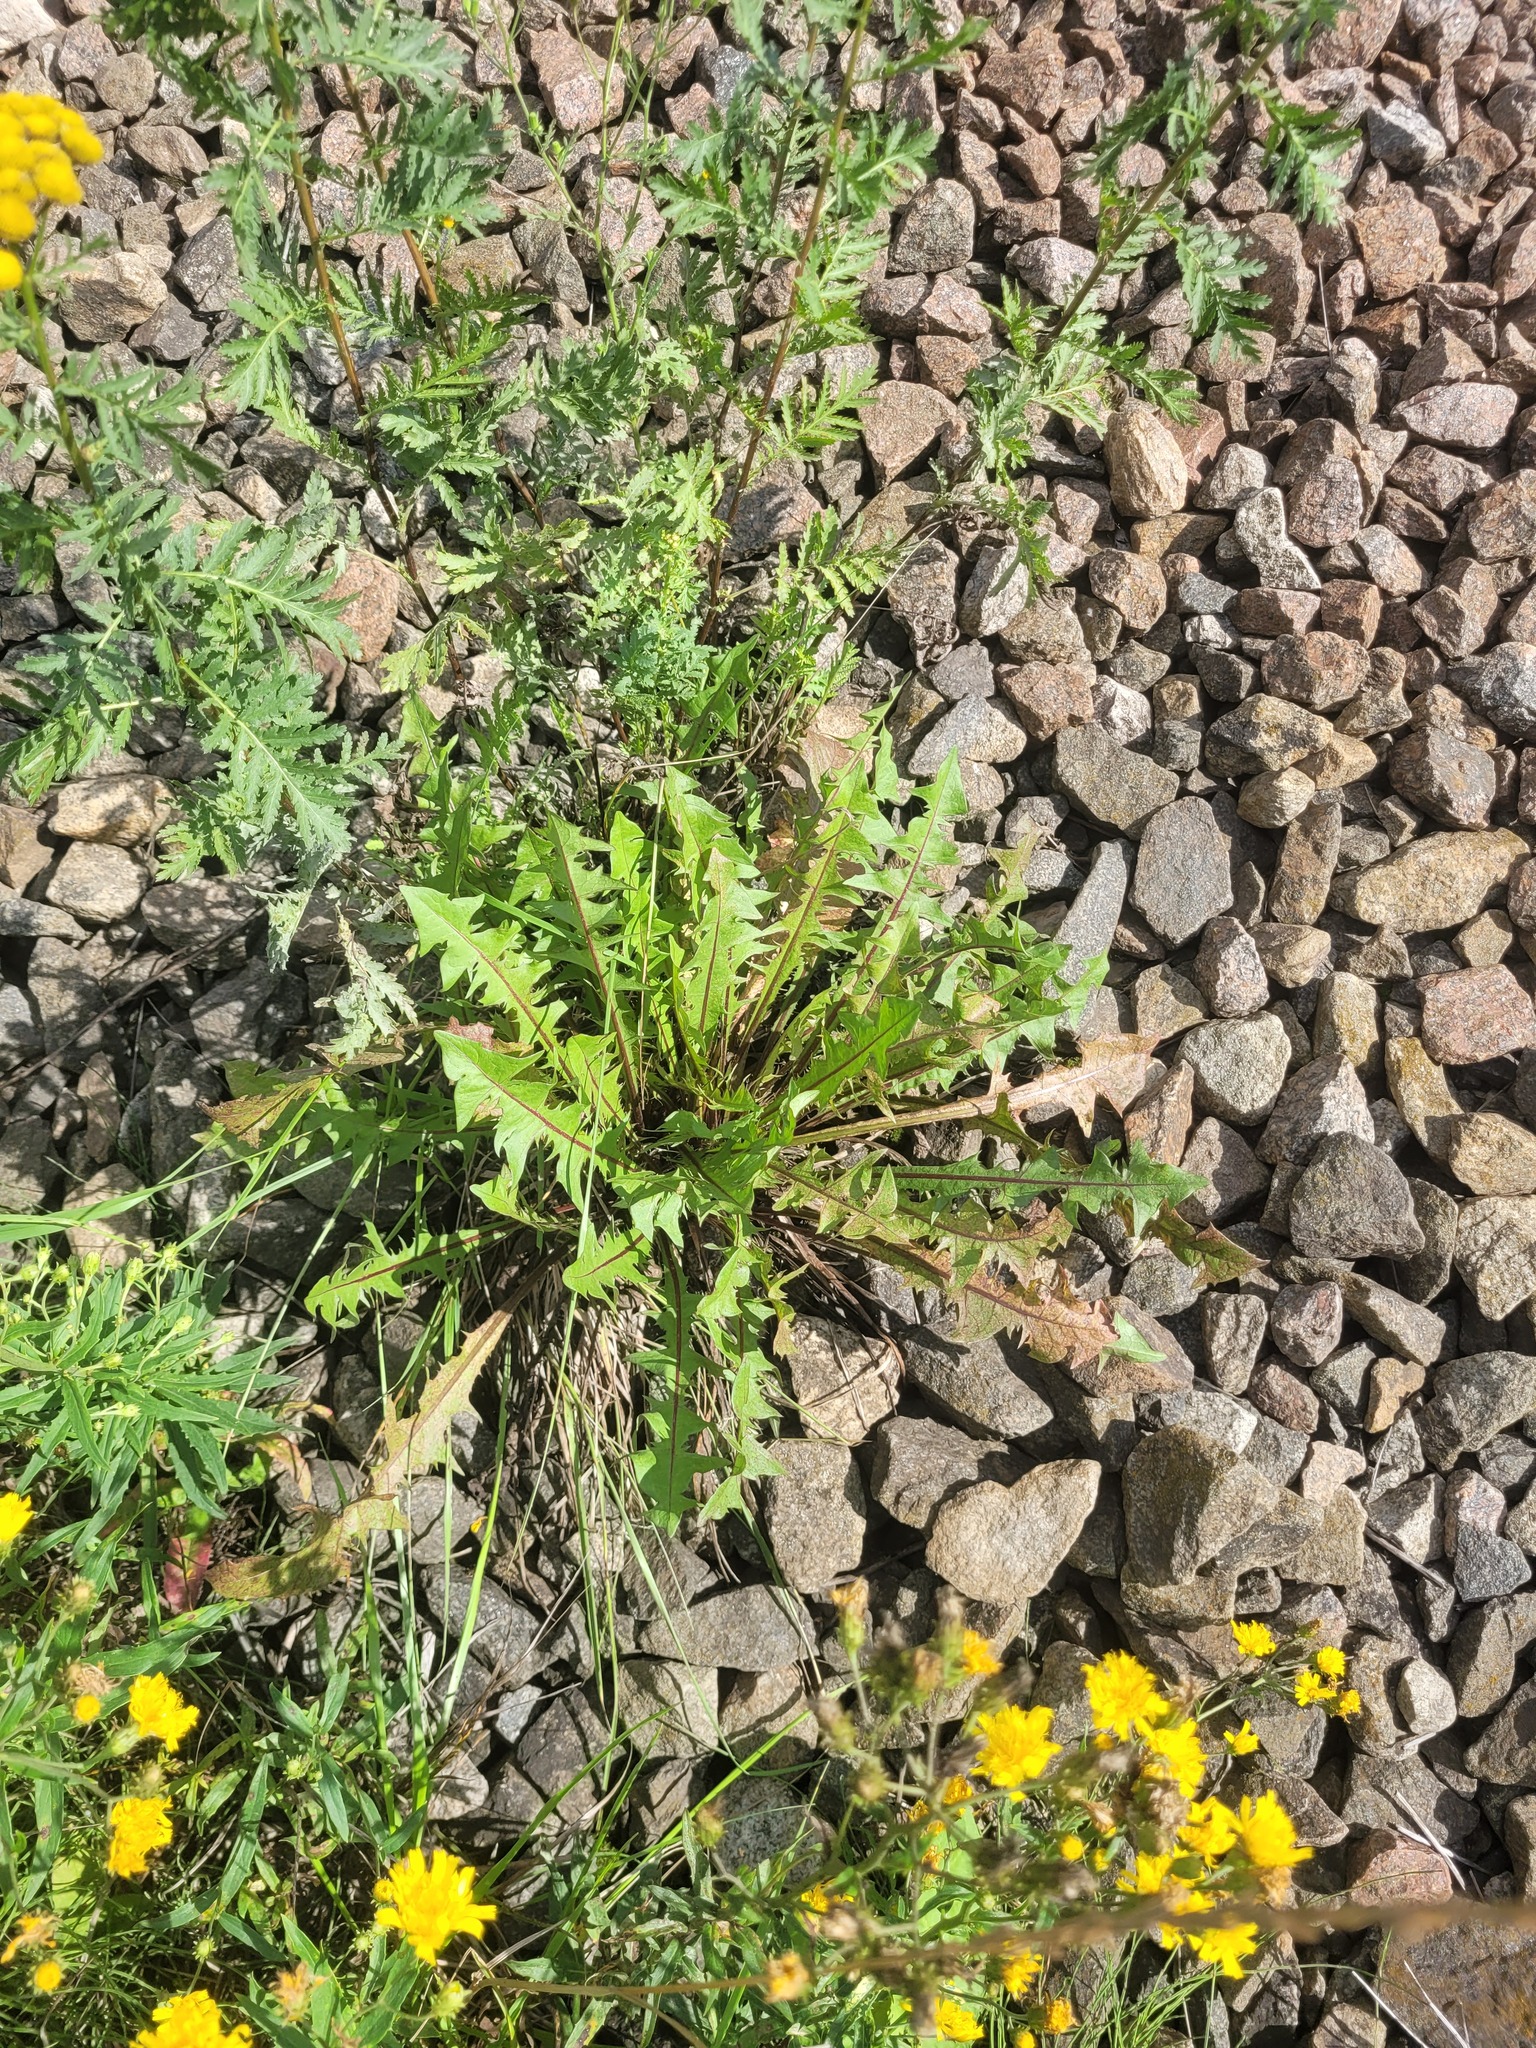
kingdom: Plantae
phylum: Tracheophyta
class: Magnoliopsida
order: Asterales
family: Asteraceae
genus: Taraxacum
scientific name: Taraxacum officinale
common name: Common dandelion
